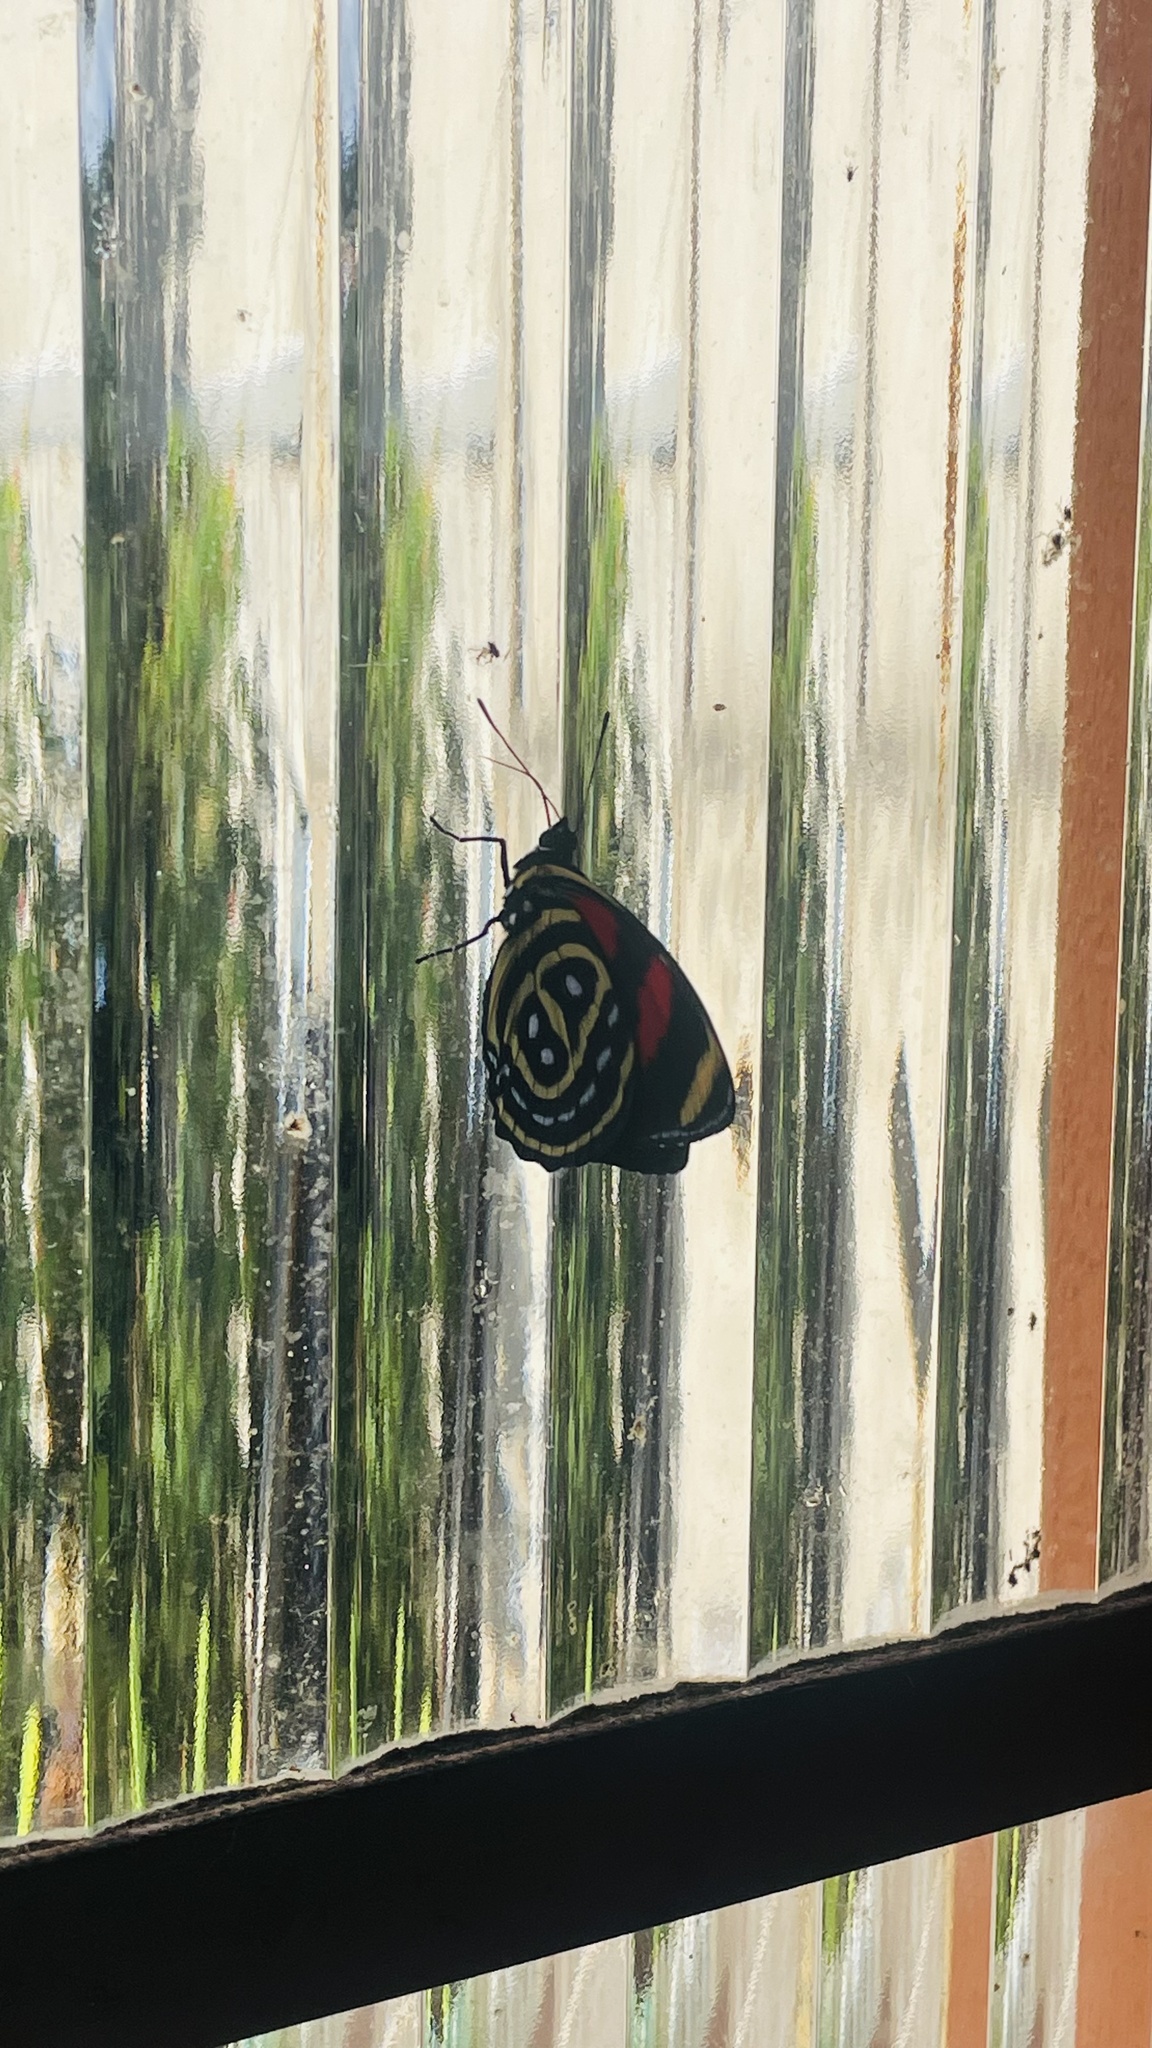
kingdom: Animalia
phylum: Arthropoda
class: Insecta
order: Lepidoptera
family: Nymphalidae
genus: Catagramma
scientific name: Catagramma astarte
